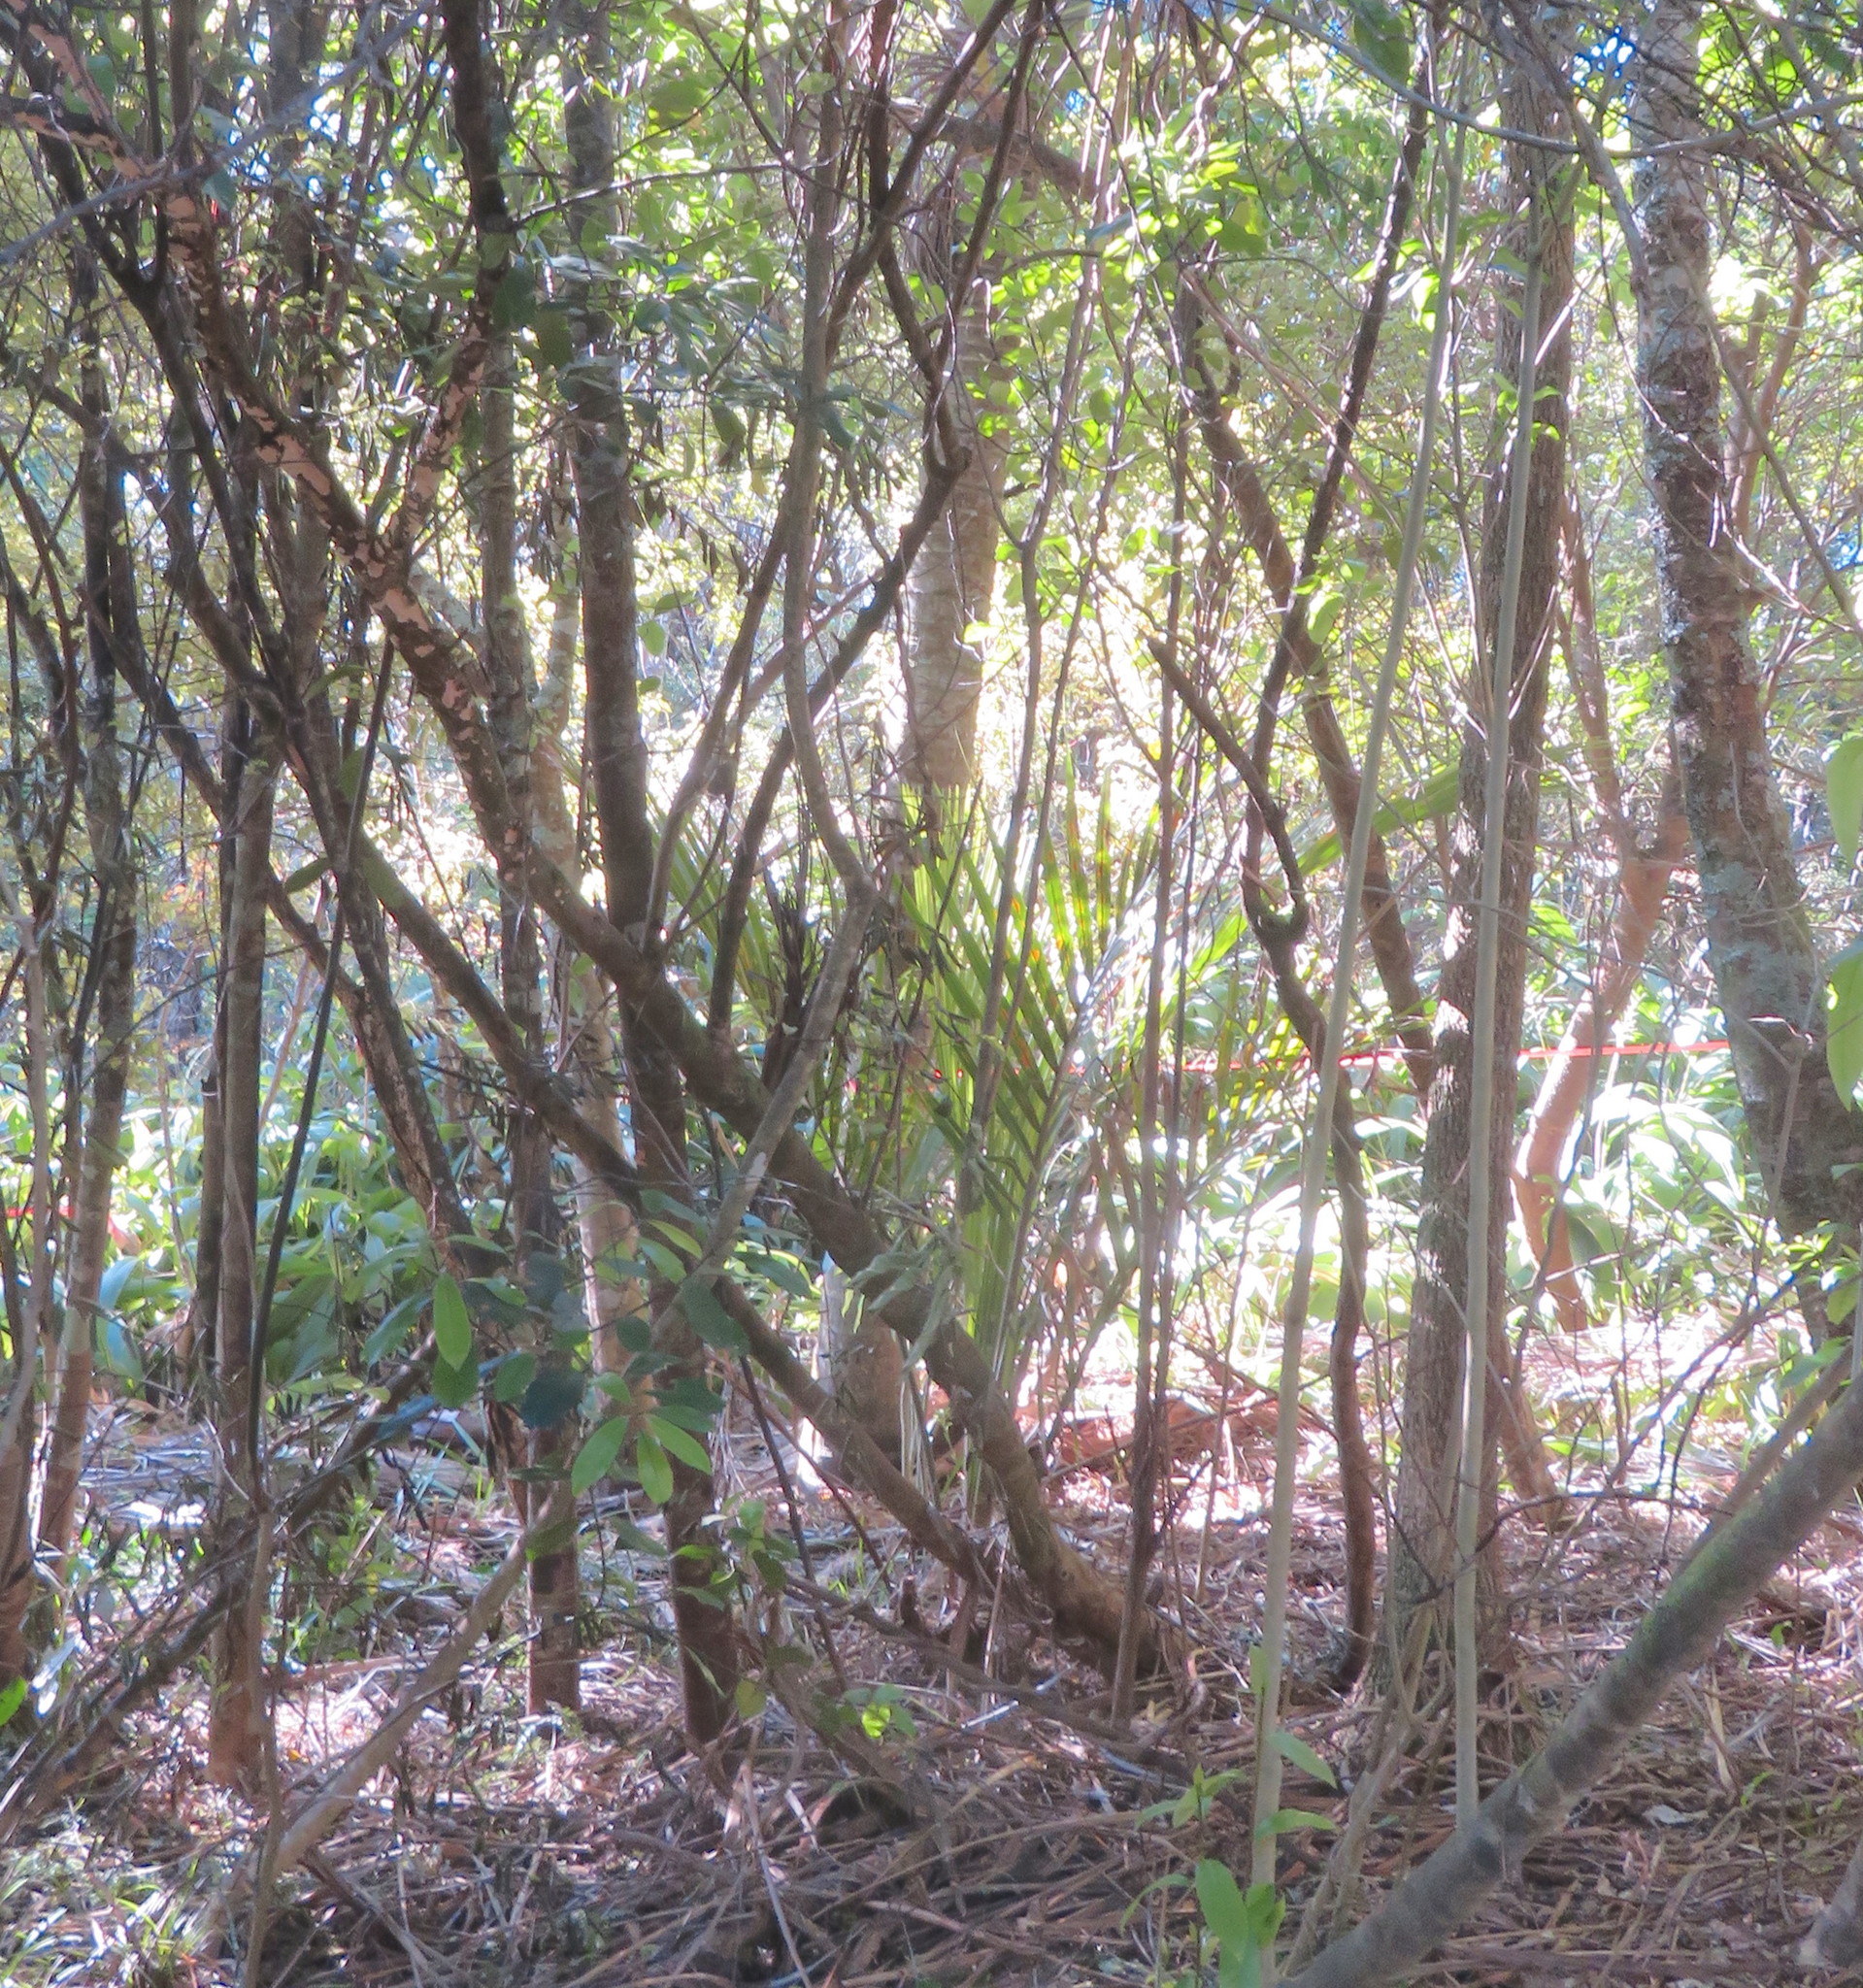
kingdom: Plantae
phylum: Tracheophyta
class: Liliopsida
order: Arecales
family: Arecaceae
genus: Rhopalostylis
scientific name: Rhopalostylis sapida
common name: Feather-duster palm
